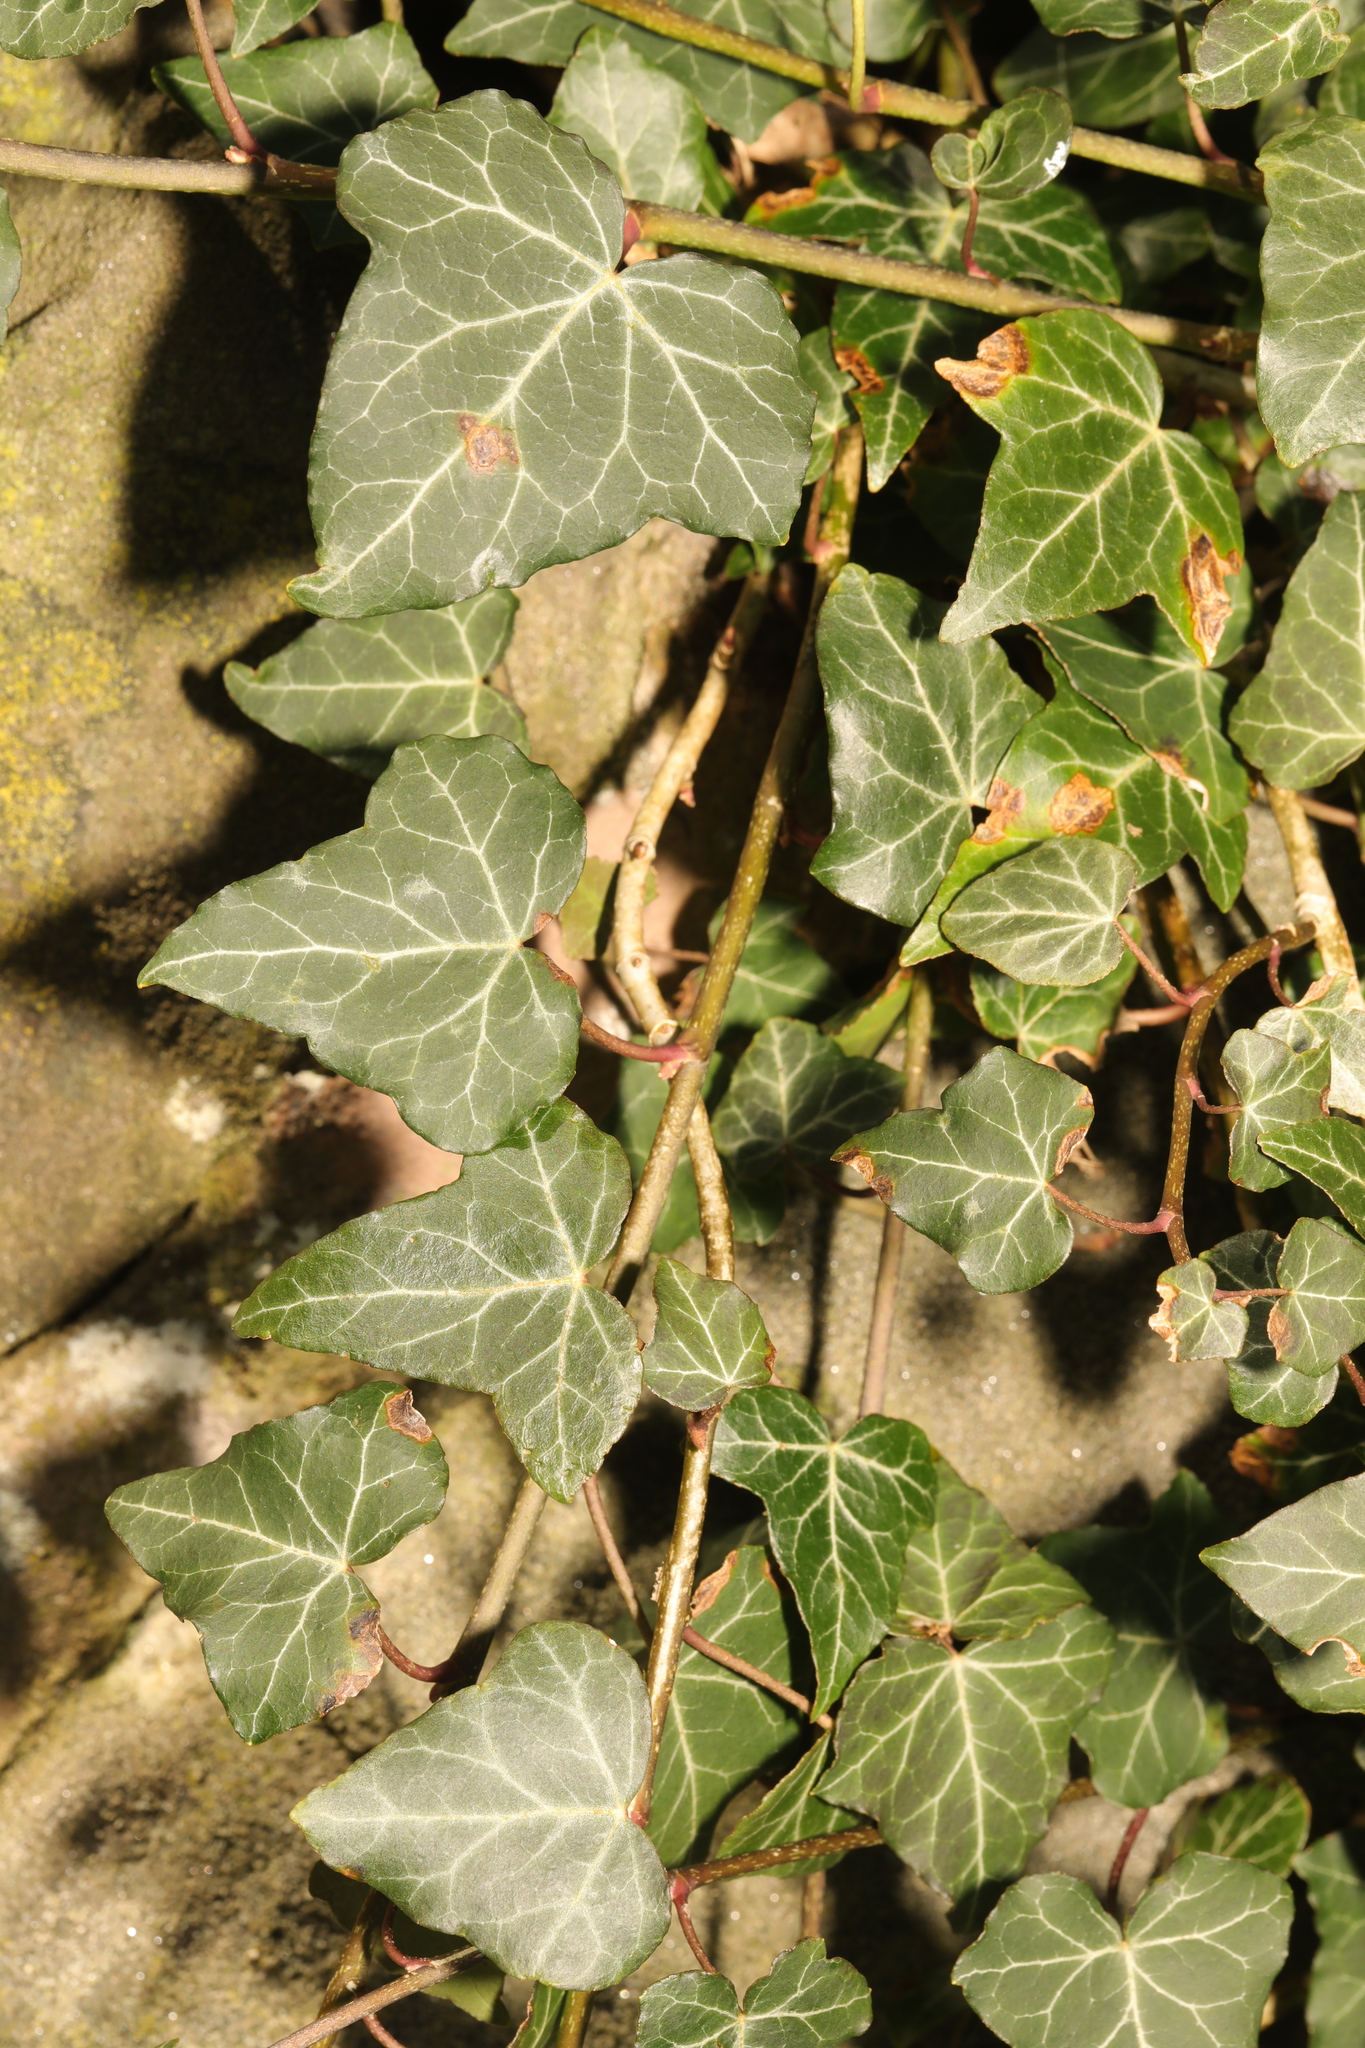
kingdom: Plantae
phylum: Tracheophyta
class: Magnoliopsida
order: Apiales
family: Araliaceae
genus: Hedera
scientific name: Hedera helix
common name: Ivy
